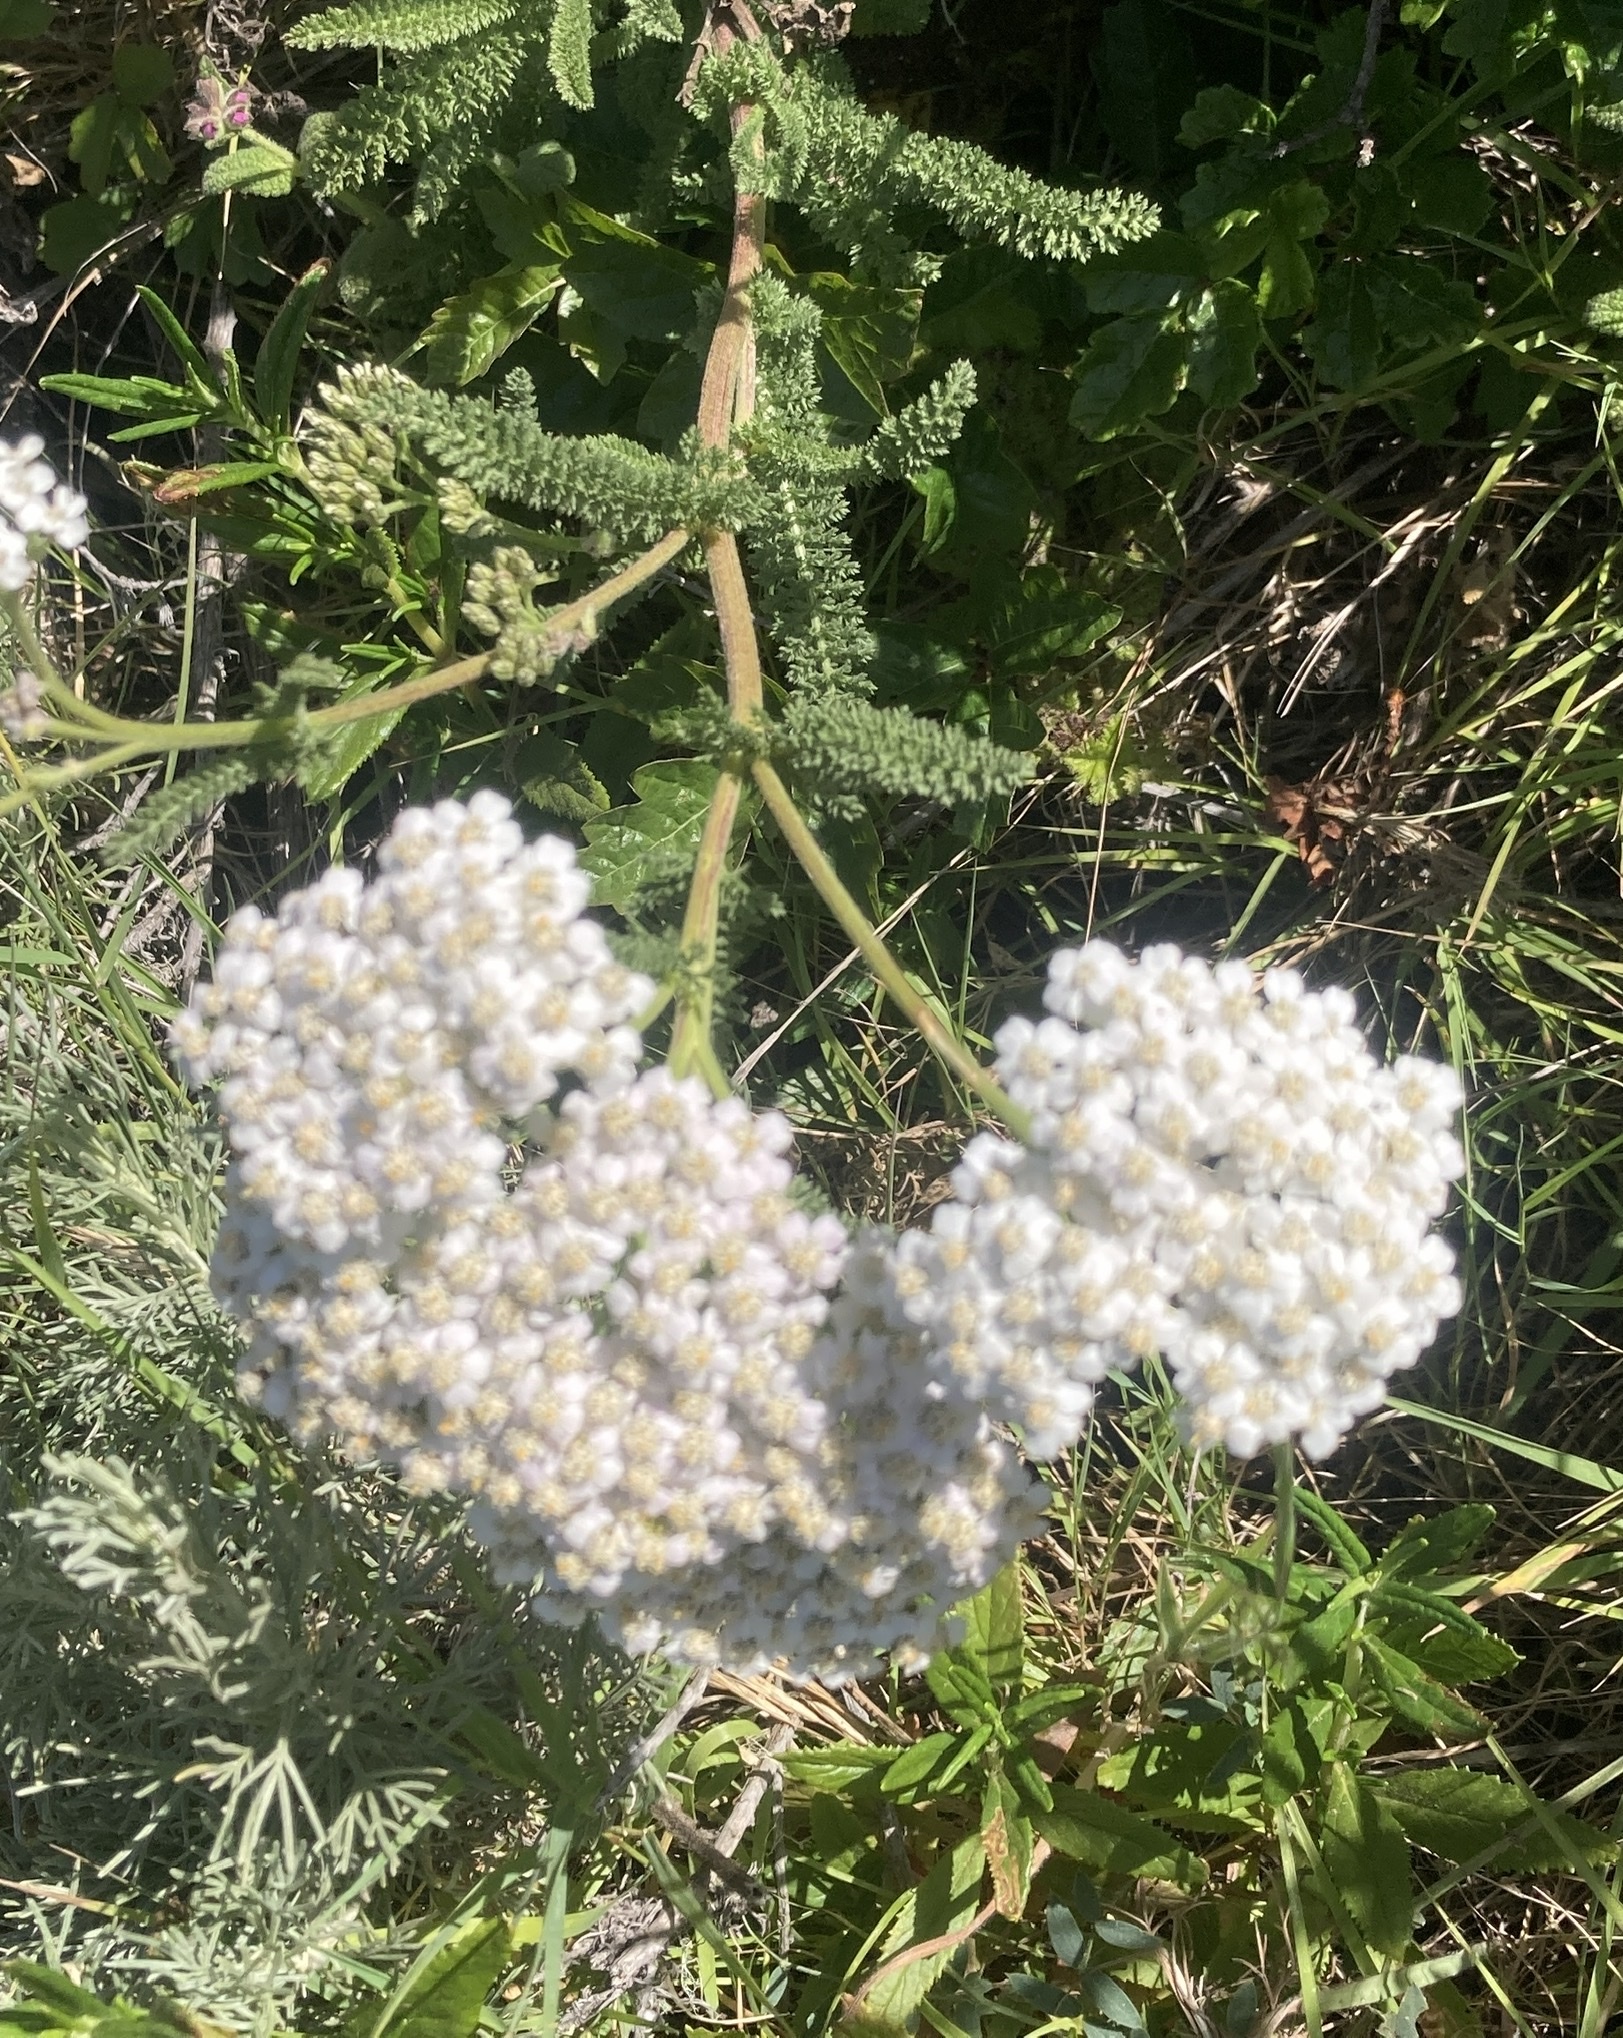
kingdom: Plantae
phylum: Tracheophyta
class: Magnoliopsida
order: Asterales
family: Asteraceae
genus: Achillea
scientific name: Achillea millefolium
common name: Yarrow
